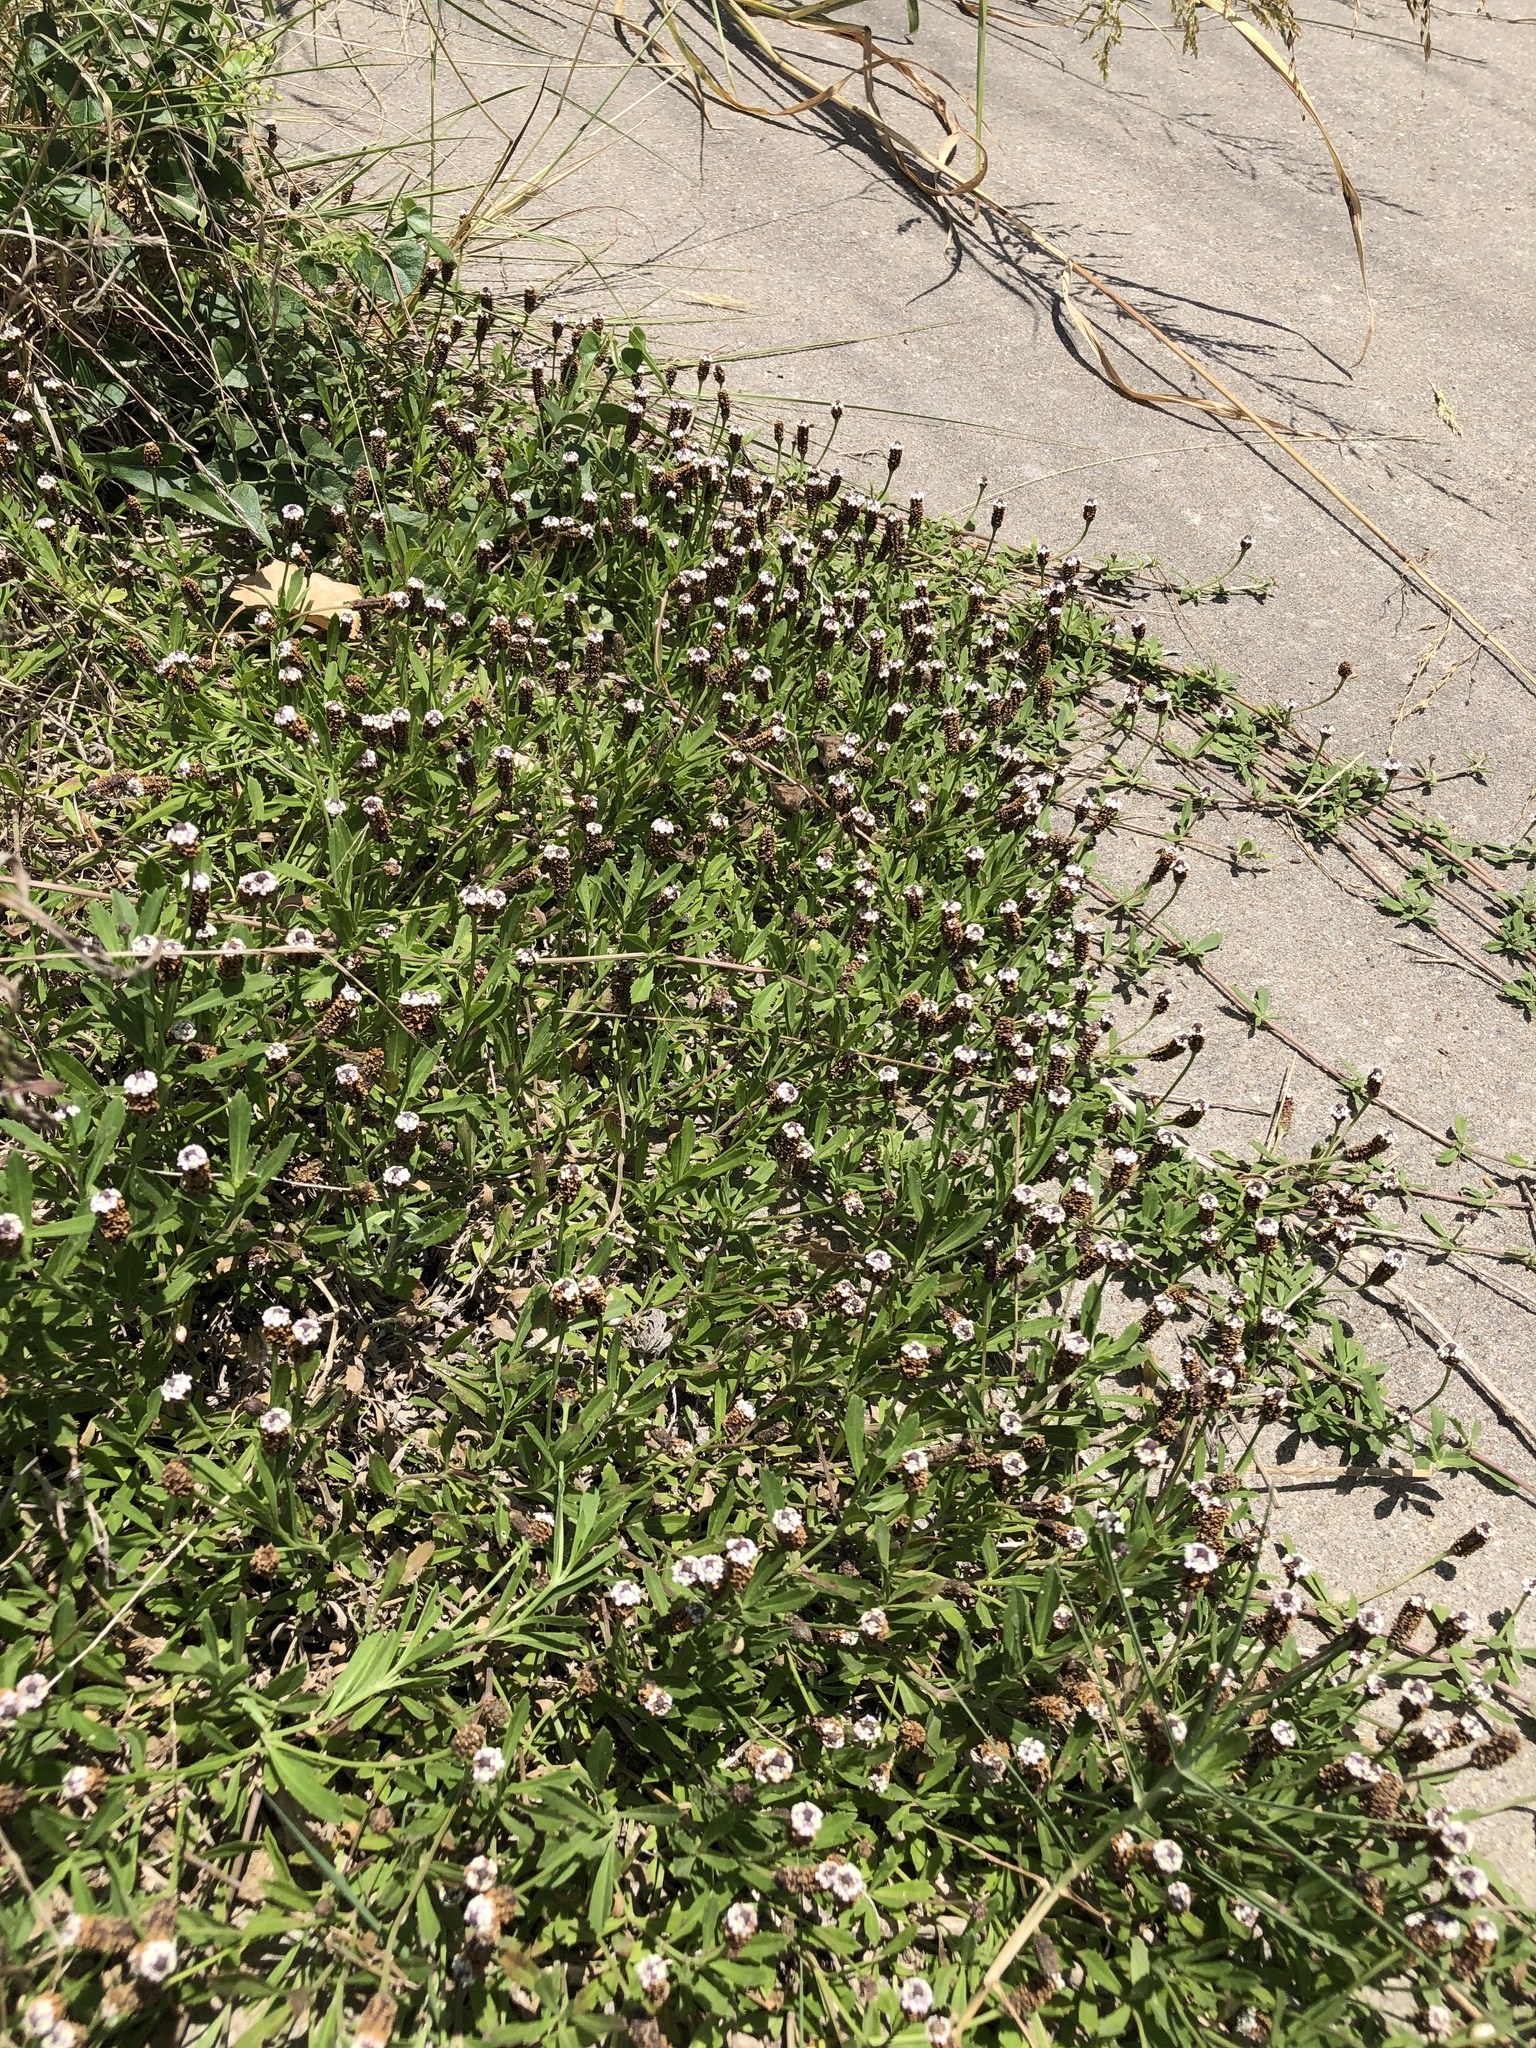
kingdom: Plantae
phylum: Tracheophyta
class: Magnoliopsida
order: Lamiales
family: Verbenaceae
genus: Phyla
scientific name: Phyla nodiflora
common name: Frogfruit
